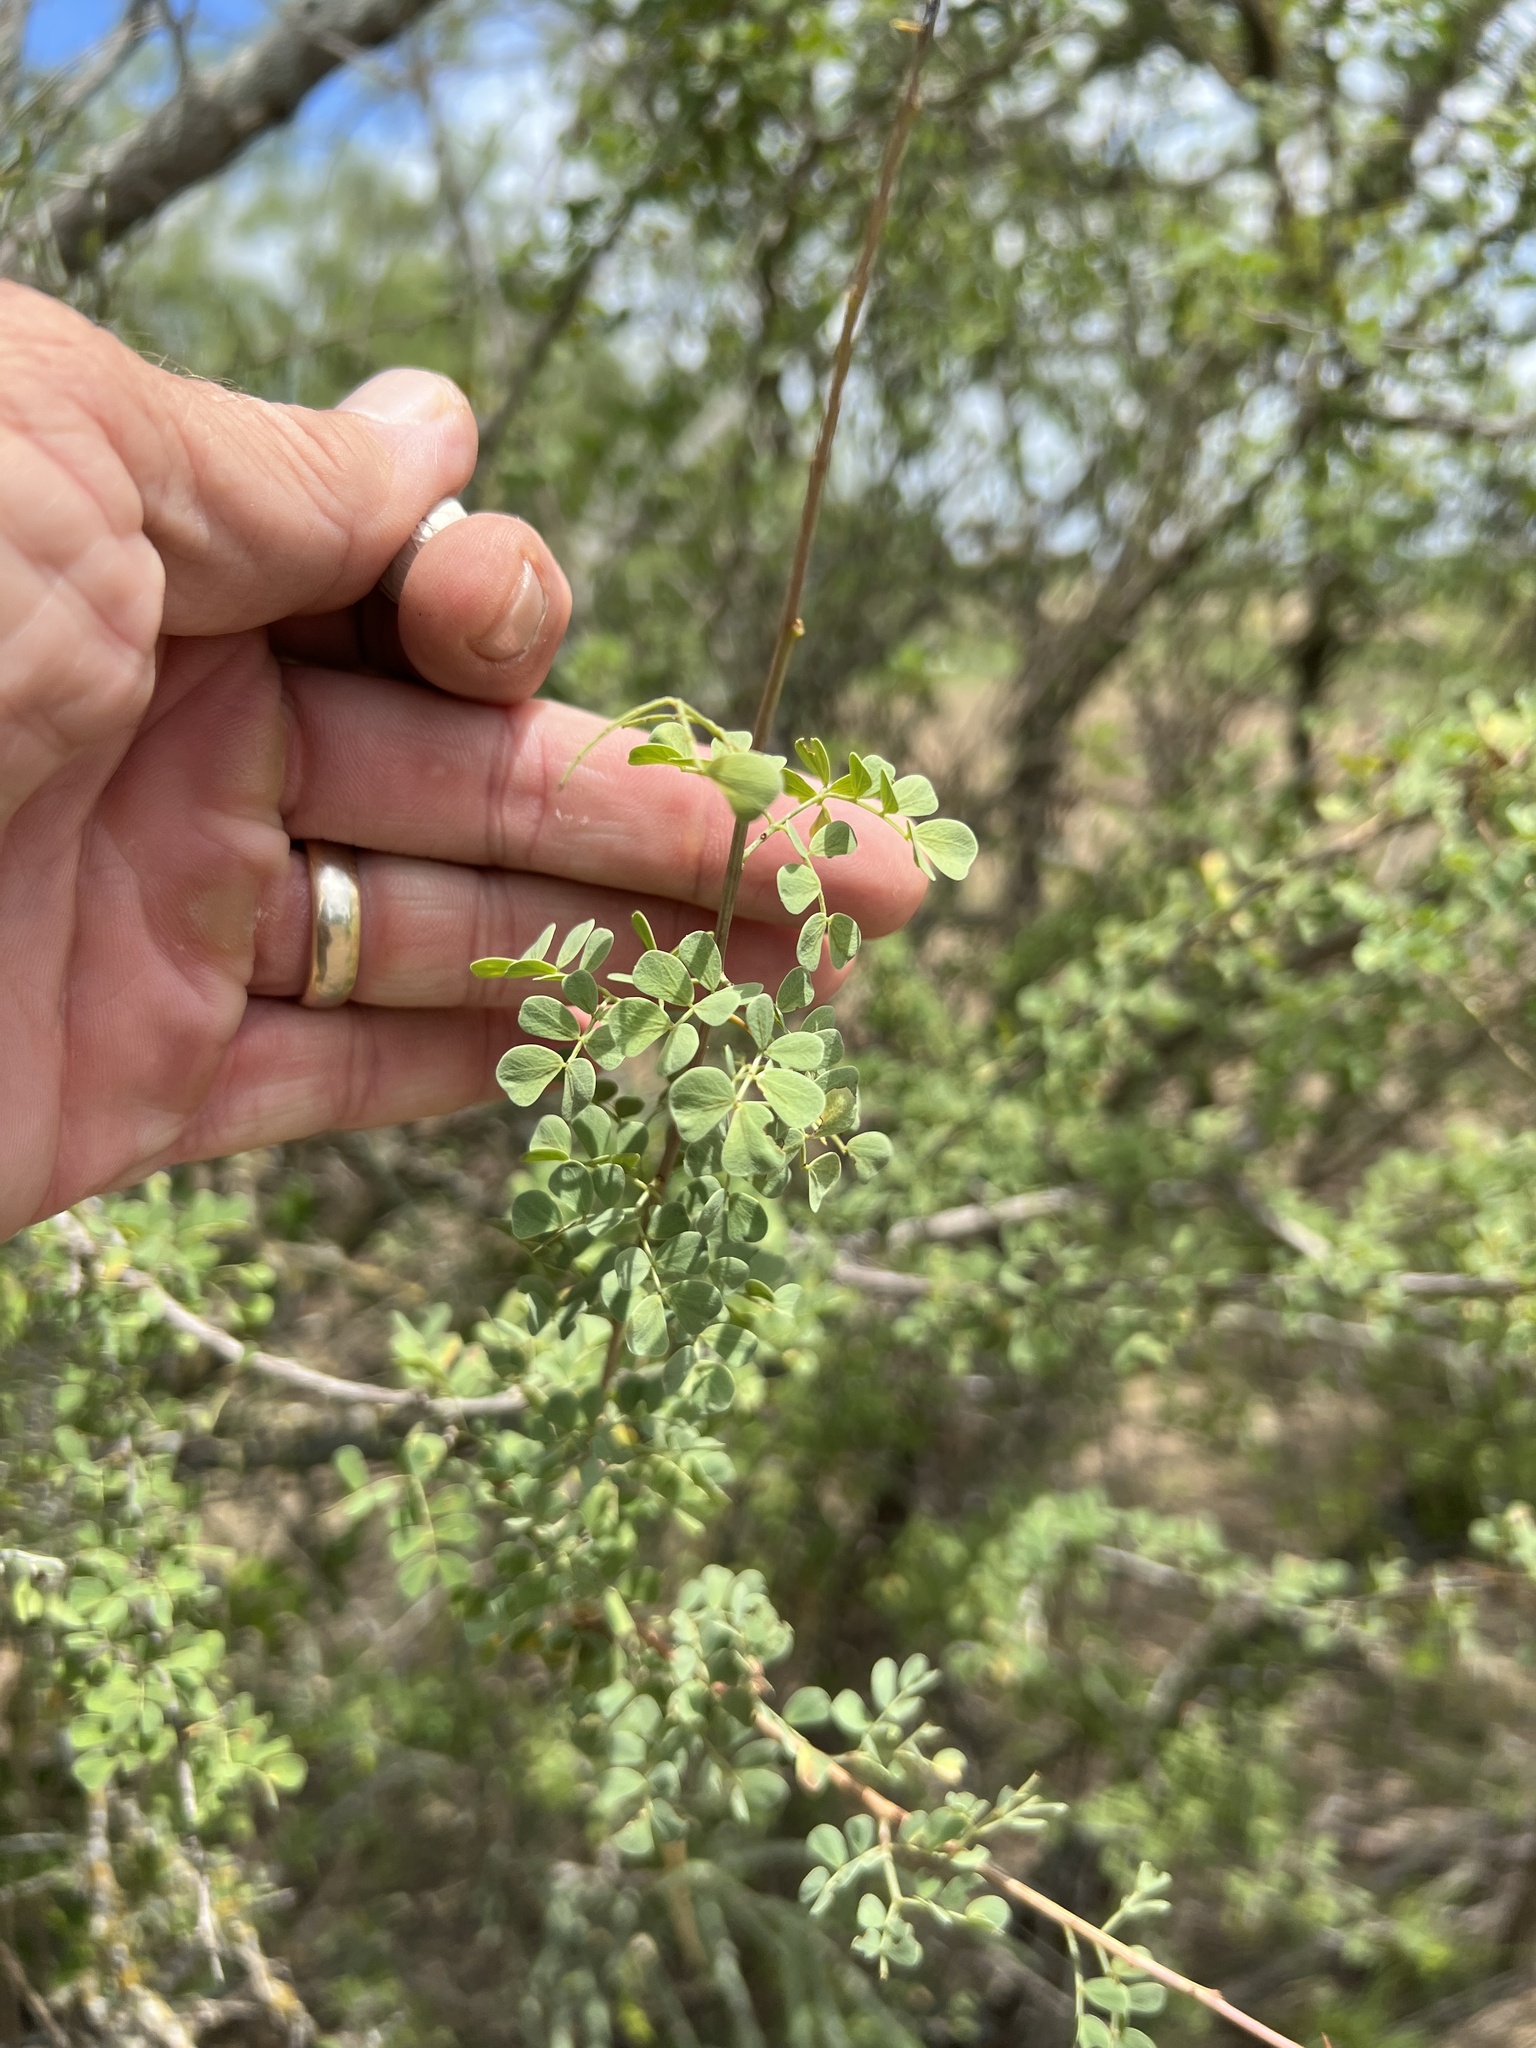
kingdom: Plantae
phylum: Tracheophyta
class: Magnoliopsida
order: Fabales
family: Fabaceae
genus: Senegalia
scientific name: Senegalia wrightii
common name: Texas cat's-claw
